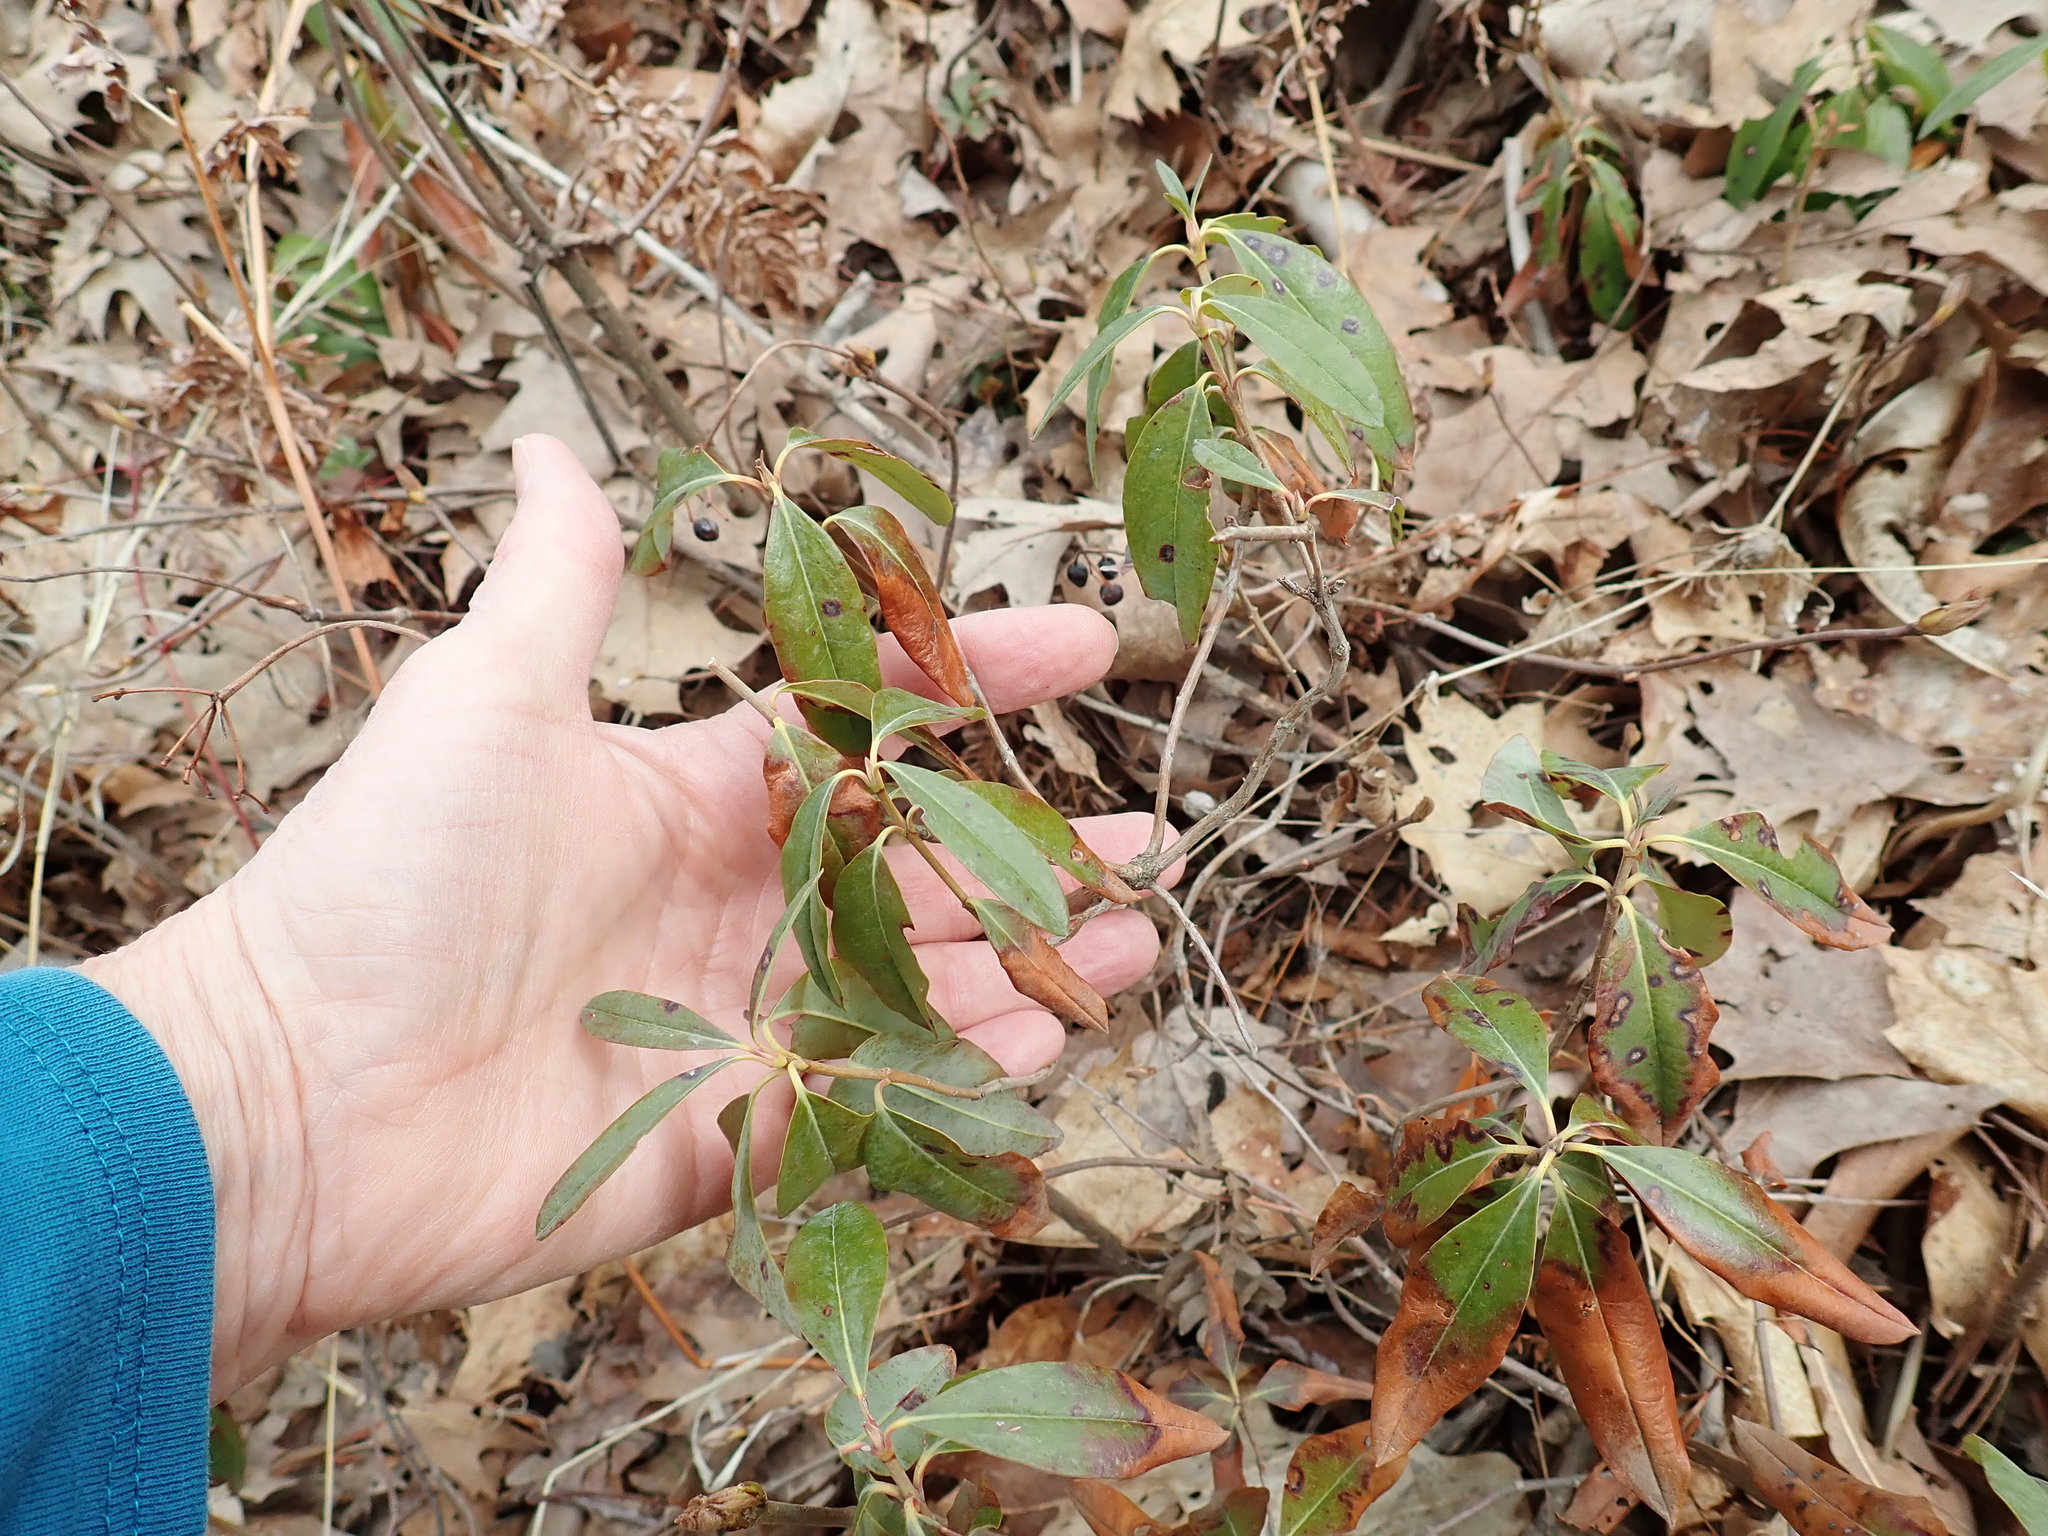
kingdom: Plantae
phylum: Tracheophyta
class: Magnoliopsida
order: Ericales
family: Ericaceae
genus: Kalmia
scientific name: Kalmia angustifolia
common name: Sheep-laurel
